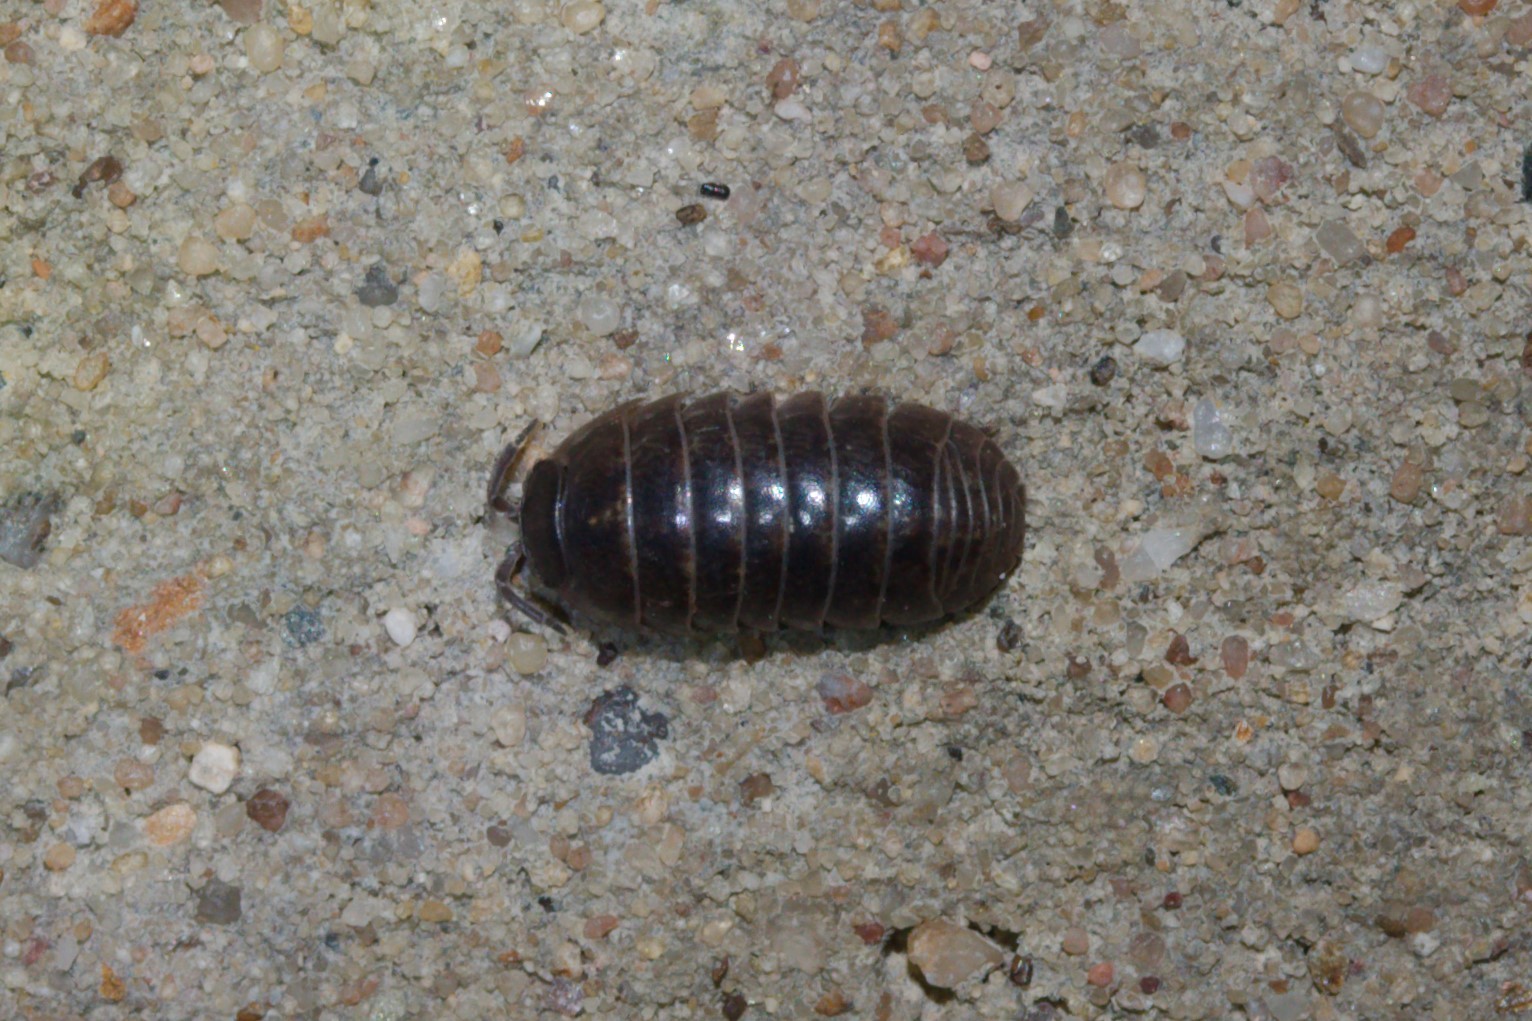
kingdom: Animalia
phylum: Arthropoda
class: Malacostraca
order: Isopoda
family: Armadillidiidae
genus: Armadillidium
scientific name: Armadillidium vulgare
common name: Common pill woodlouse
